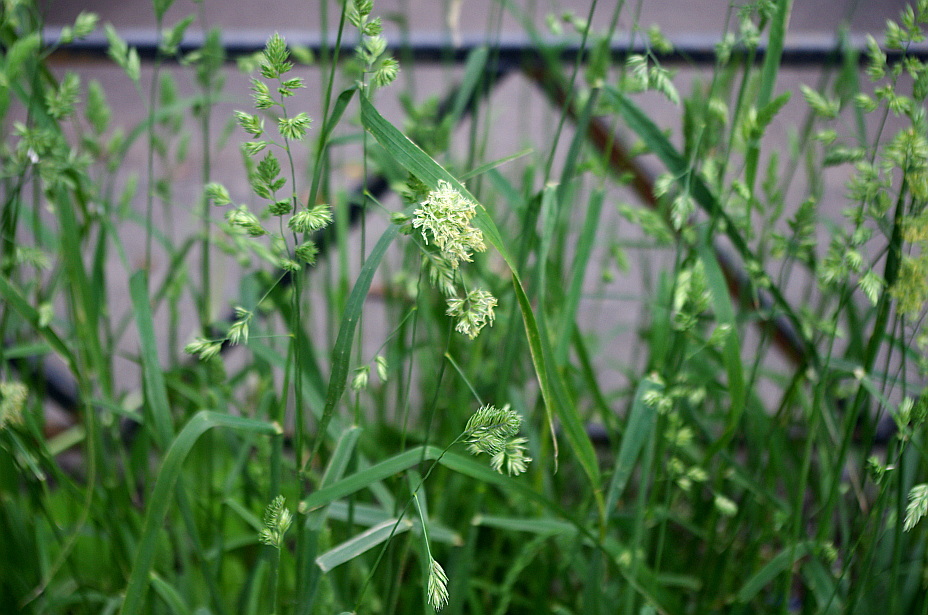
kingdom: Plantae
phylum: Tracheophyta
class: Liliopsida
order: Poales
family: Poaceae
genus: Dactylis
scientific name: Dactylis glomerata
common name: Orchardgrass
